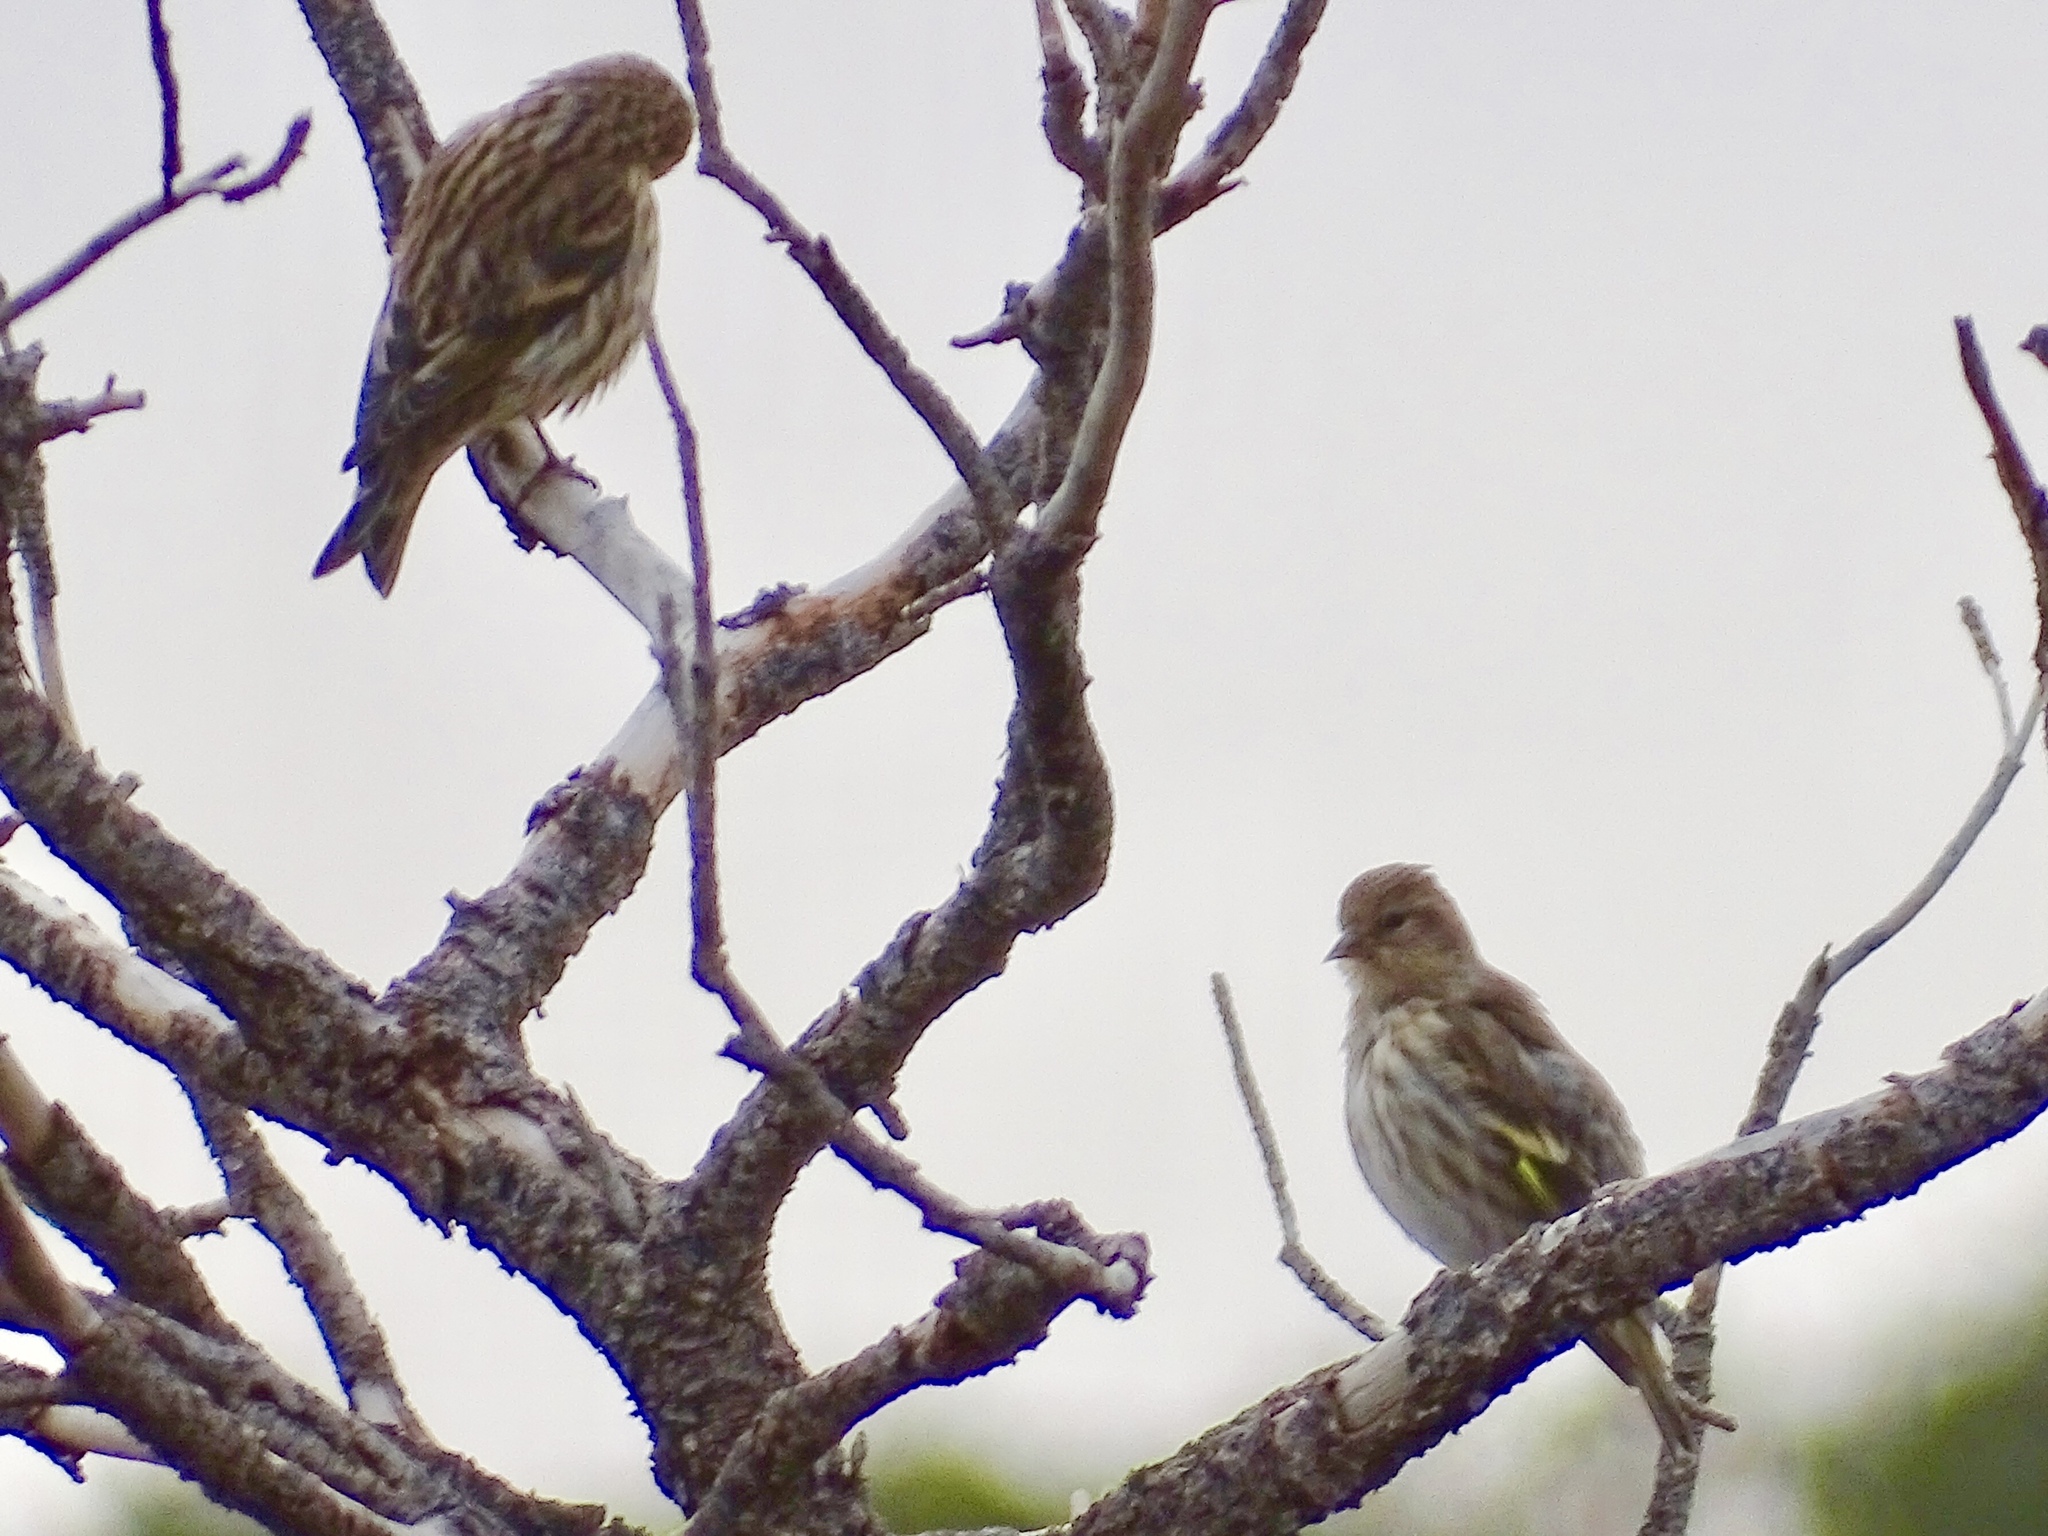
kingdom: Animalia
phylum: Chordata
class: Aves
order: Passeriformes
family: Fringillidae
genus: Spinus
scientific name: Spinus pinus
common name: Pine siskin
